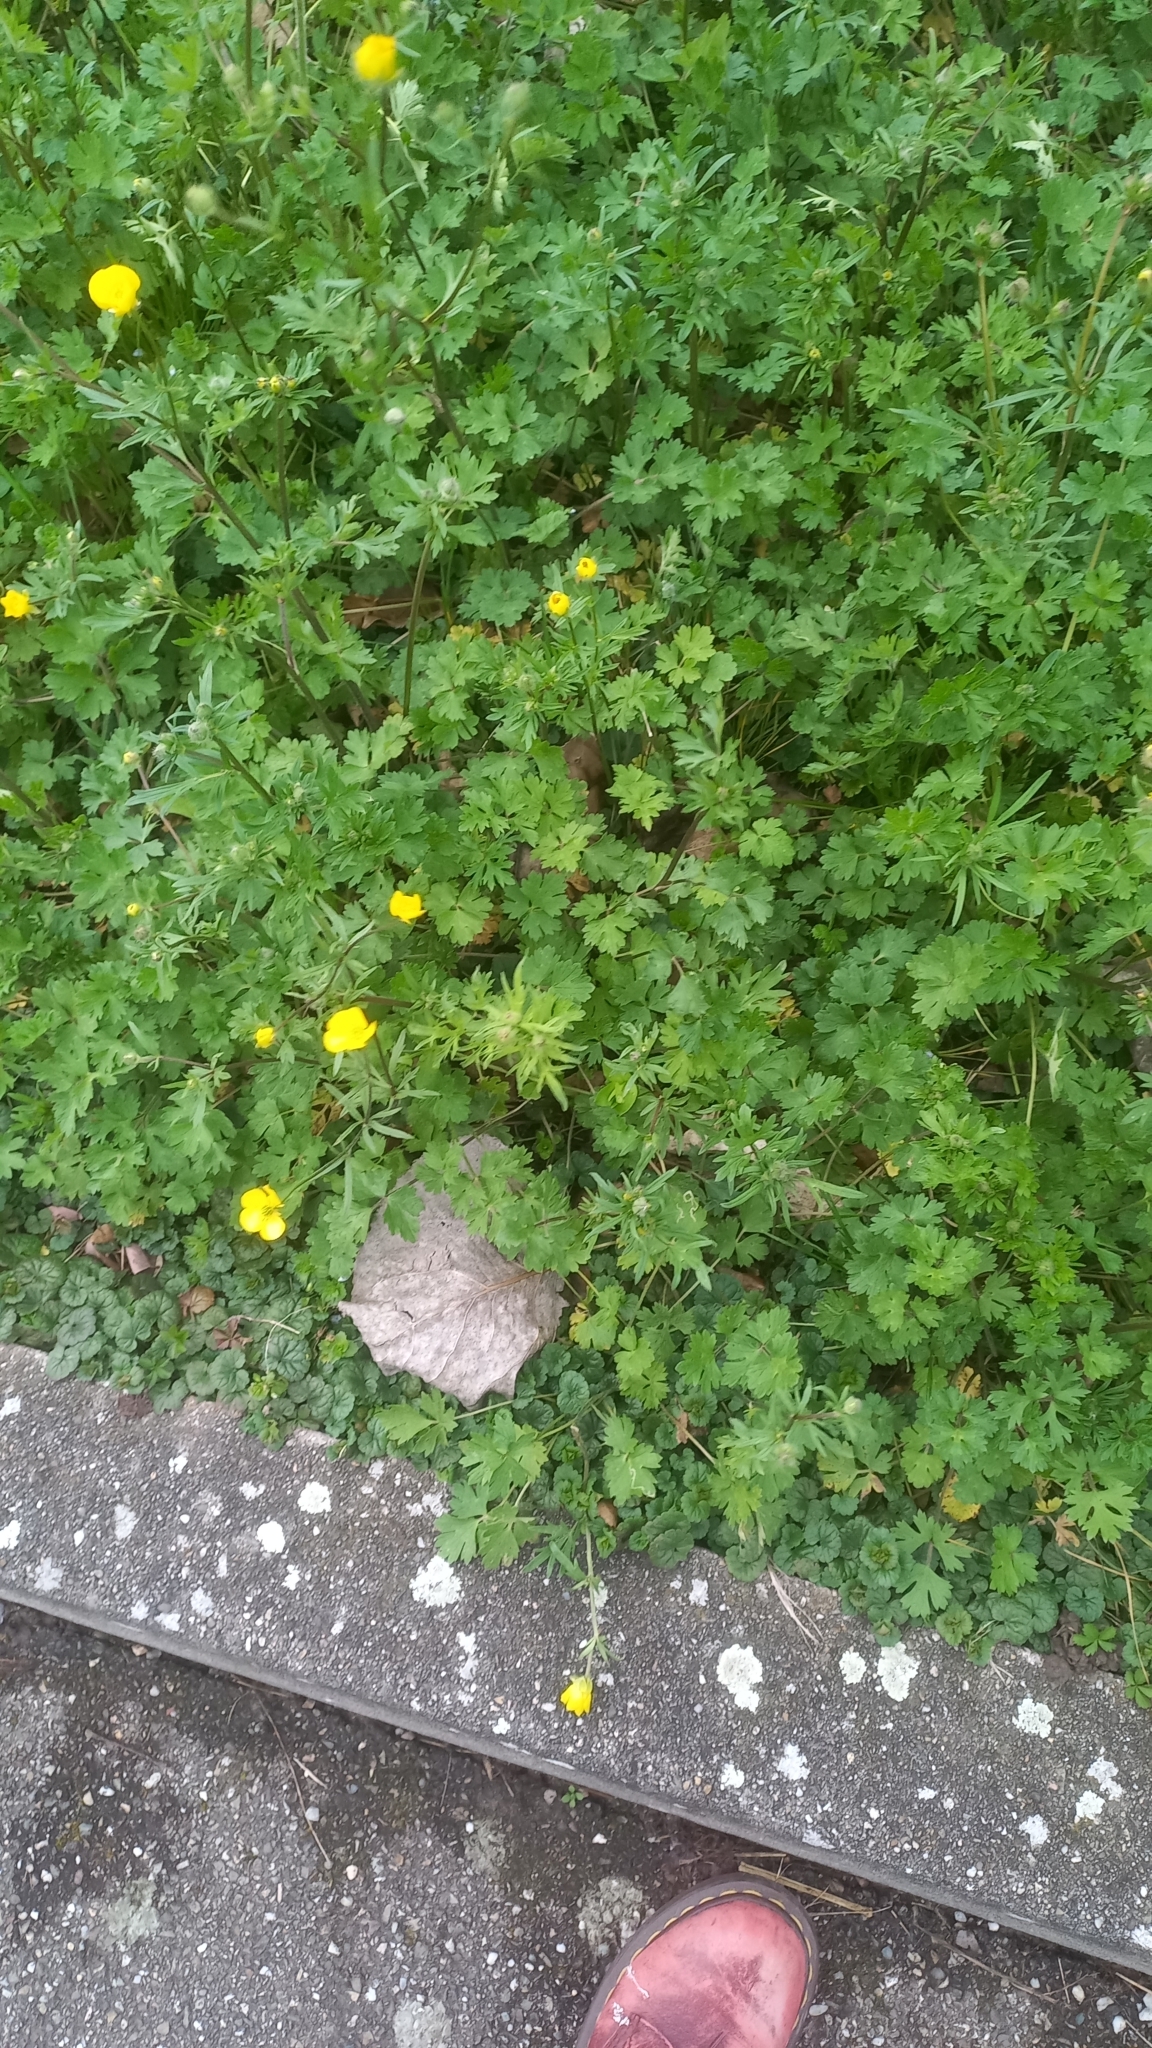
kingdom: Plantae
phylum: Tracheophyta
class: Magnoliopsida
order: Ranunculales
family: Ranunculaceae
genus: Ranunculus
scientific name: Ranunculus auricomus
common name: Goldilocks buttercup
